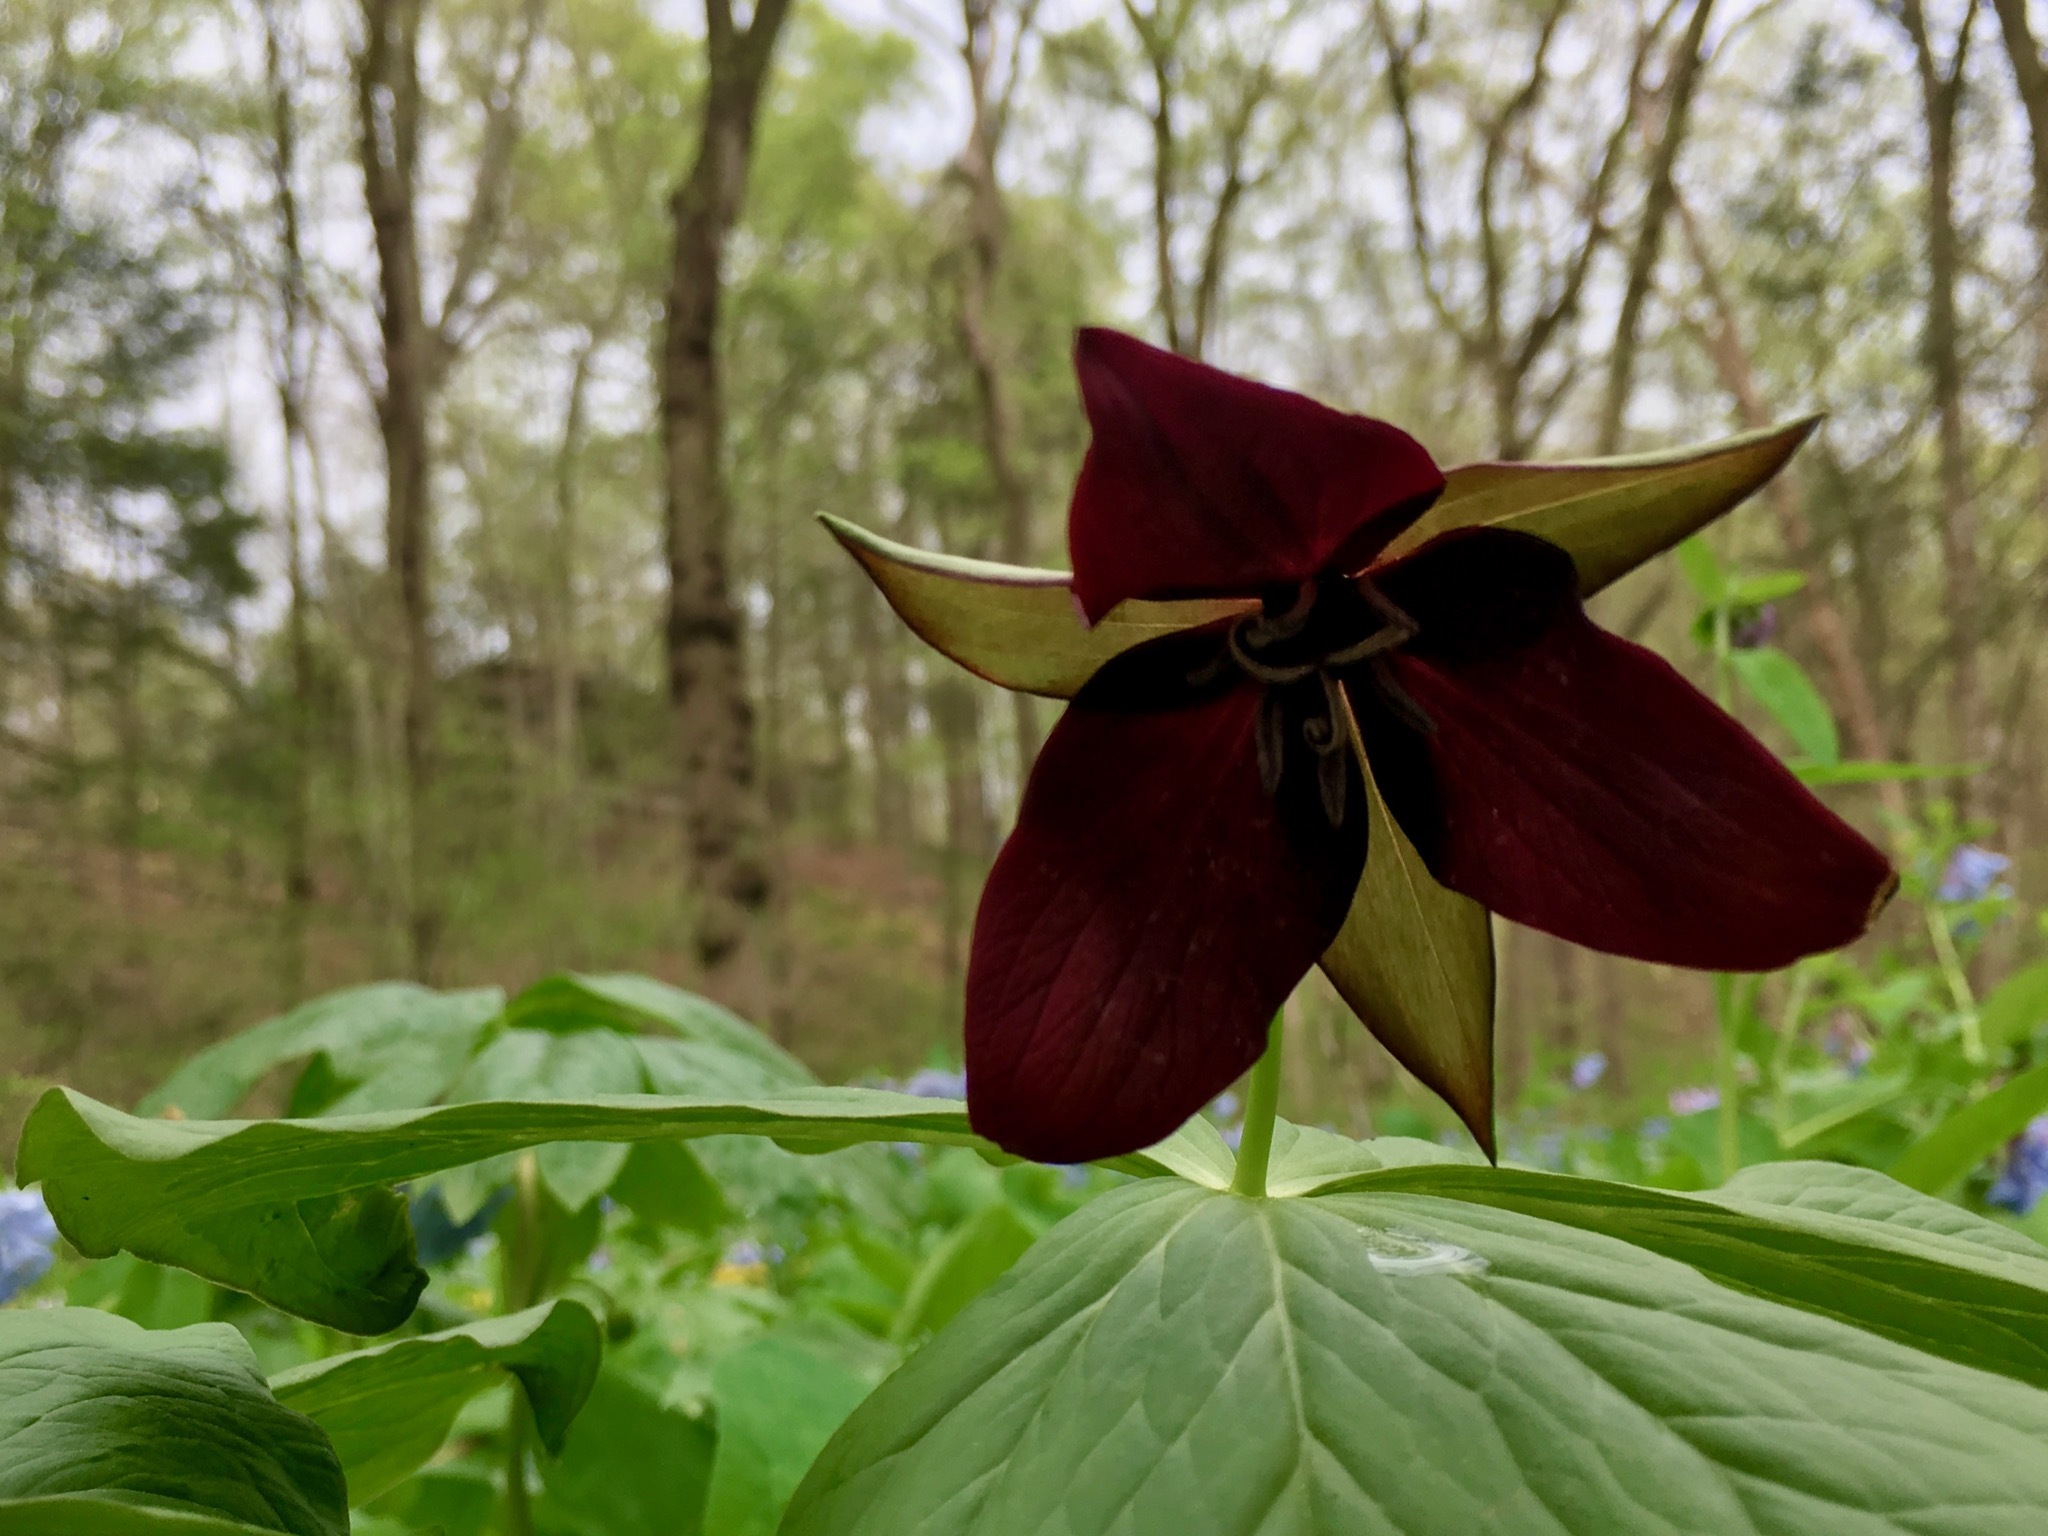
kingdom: Plantae
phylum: Tracheophyta
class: Liliopsida
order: Liliales
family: Melanthiaceae
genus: Trillium
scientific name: Trillium erectum
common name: Purple trillium
